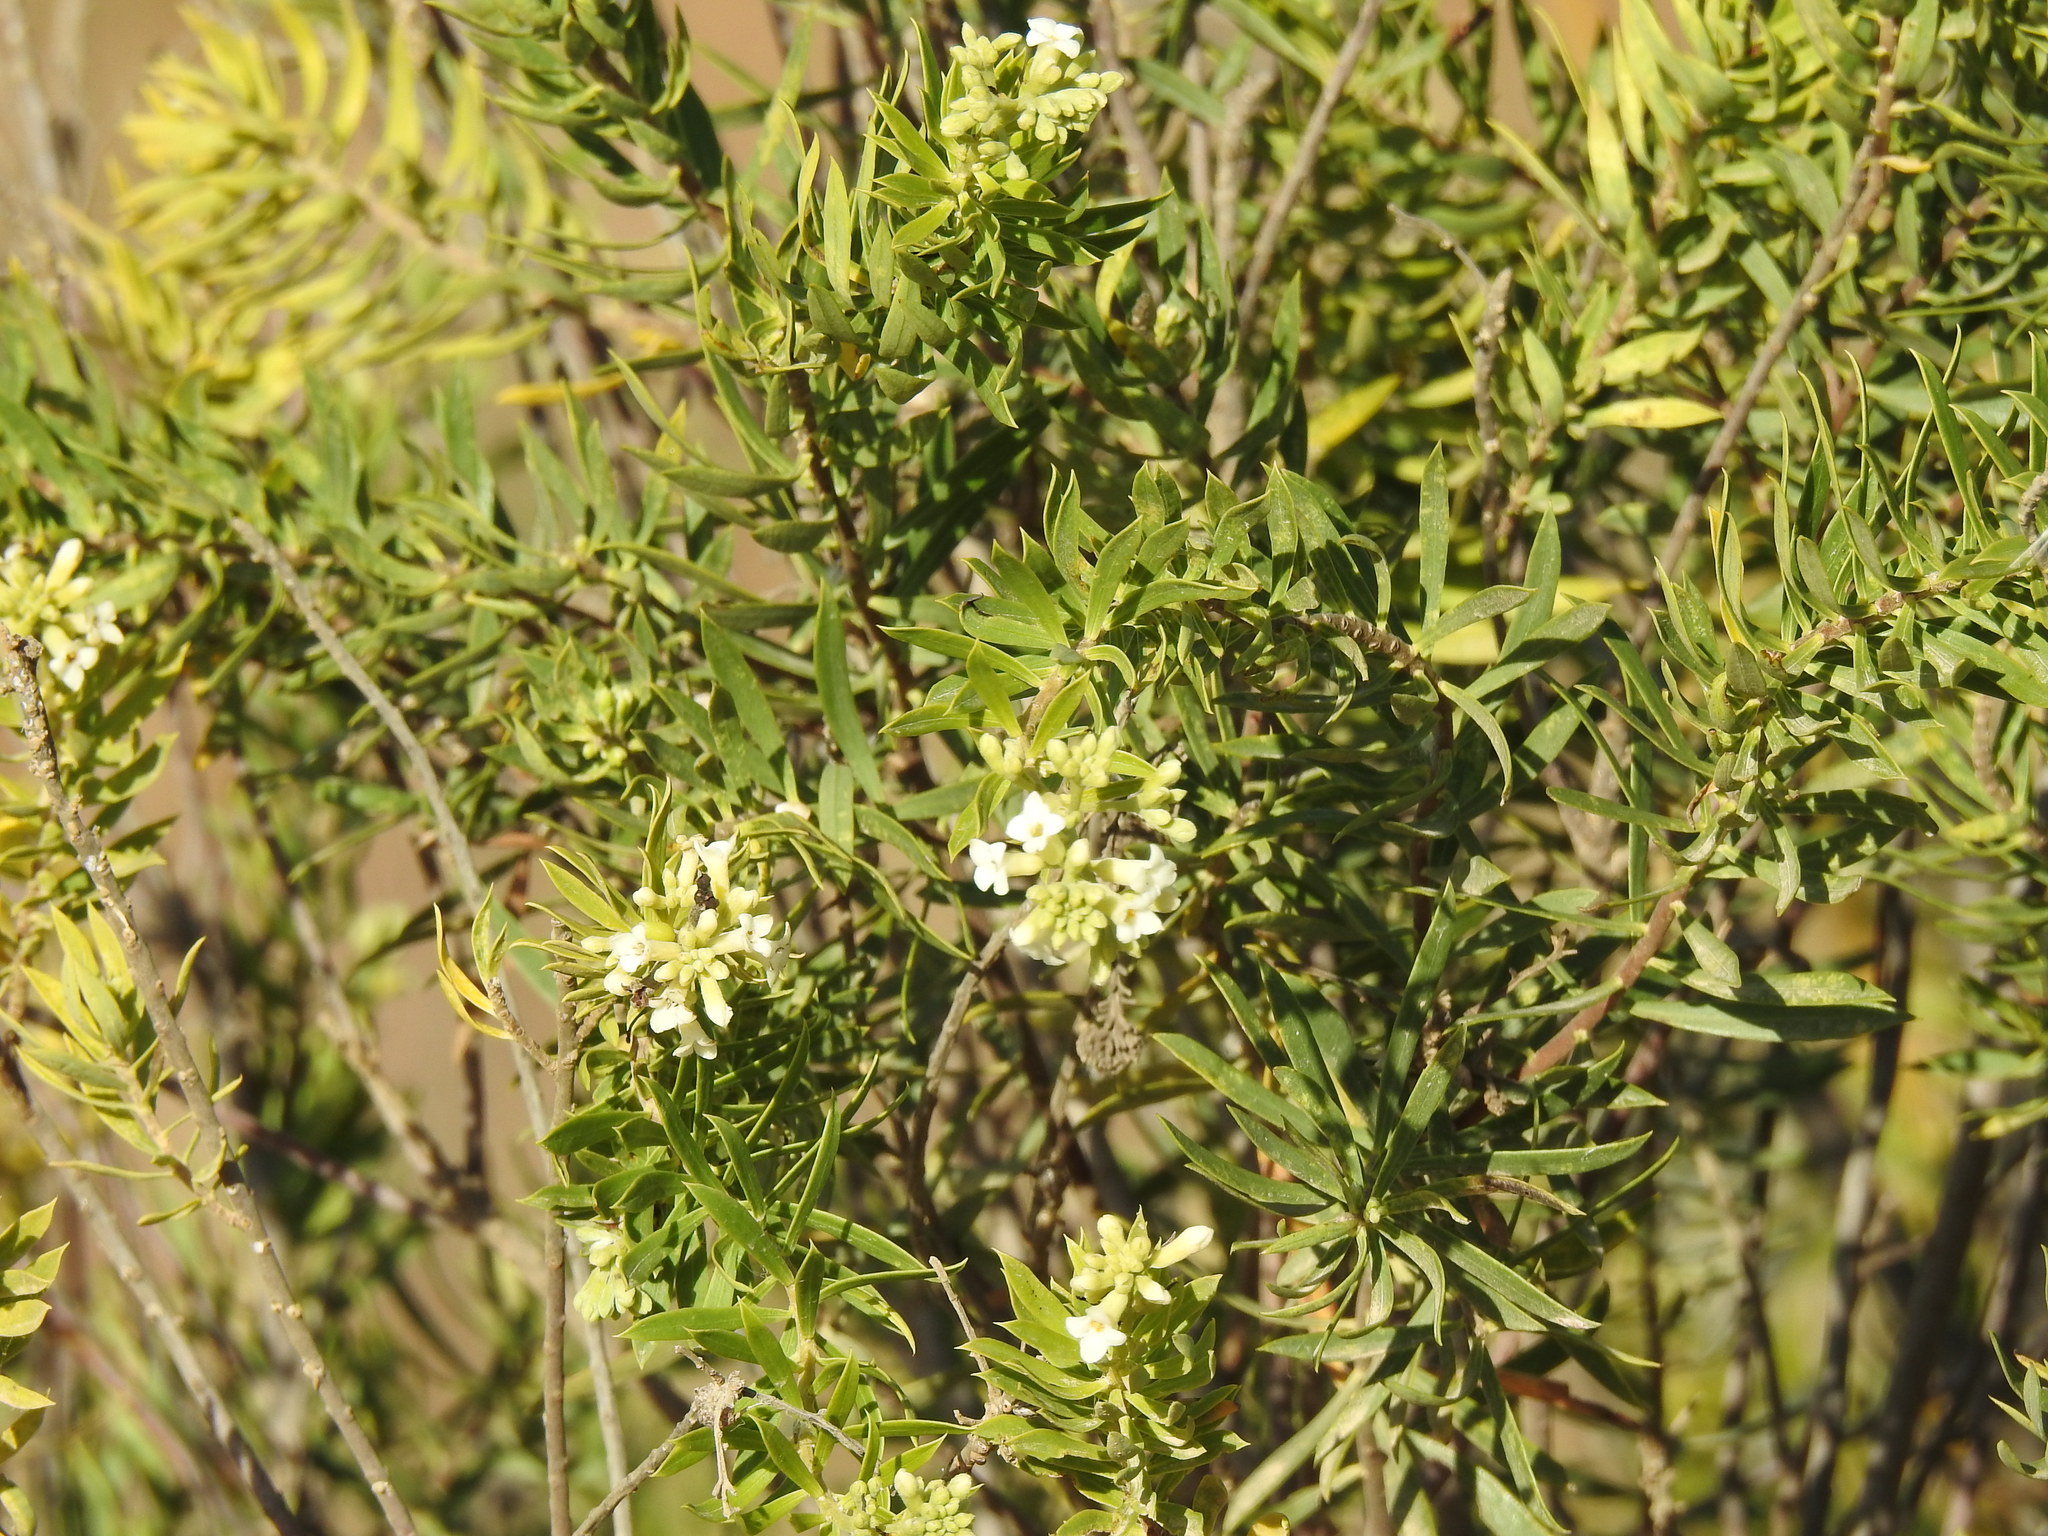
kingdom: Plantae
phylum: Tracheophyta
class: Magnoliopsida
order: Malvales
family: Thymelaeaceae
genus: Daphne
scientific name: Daphne gnidium
